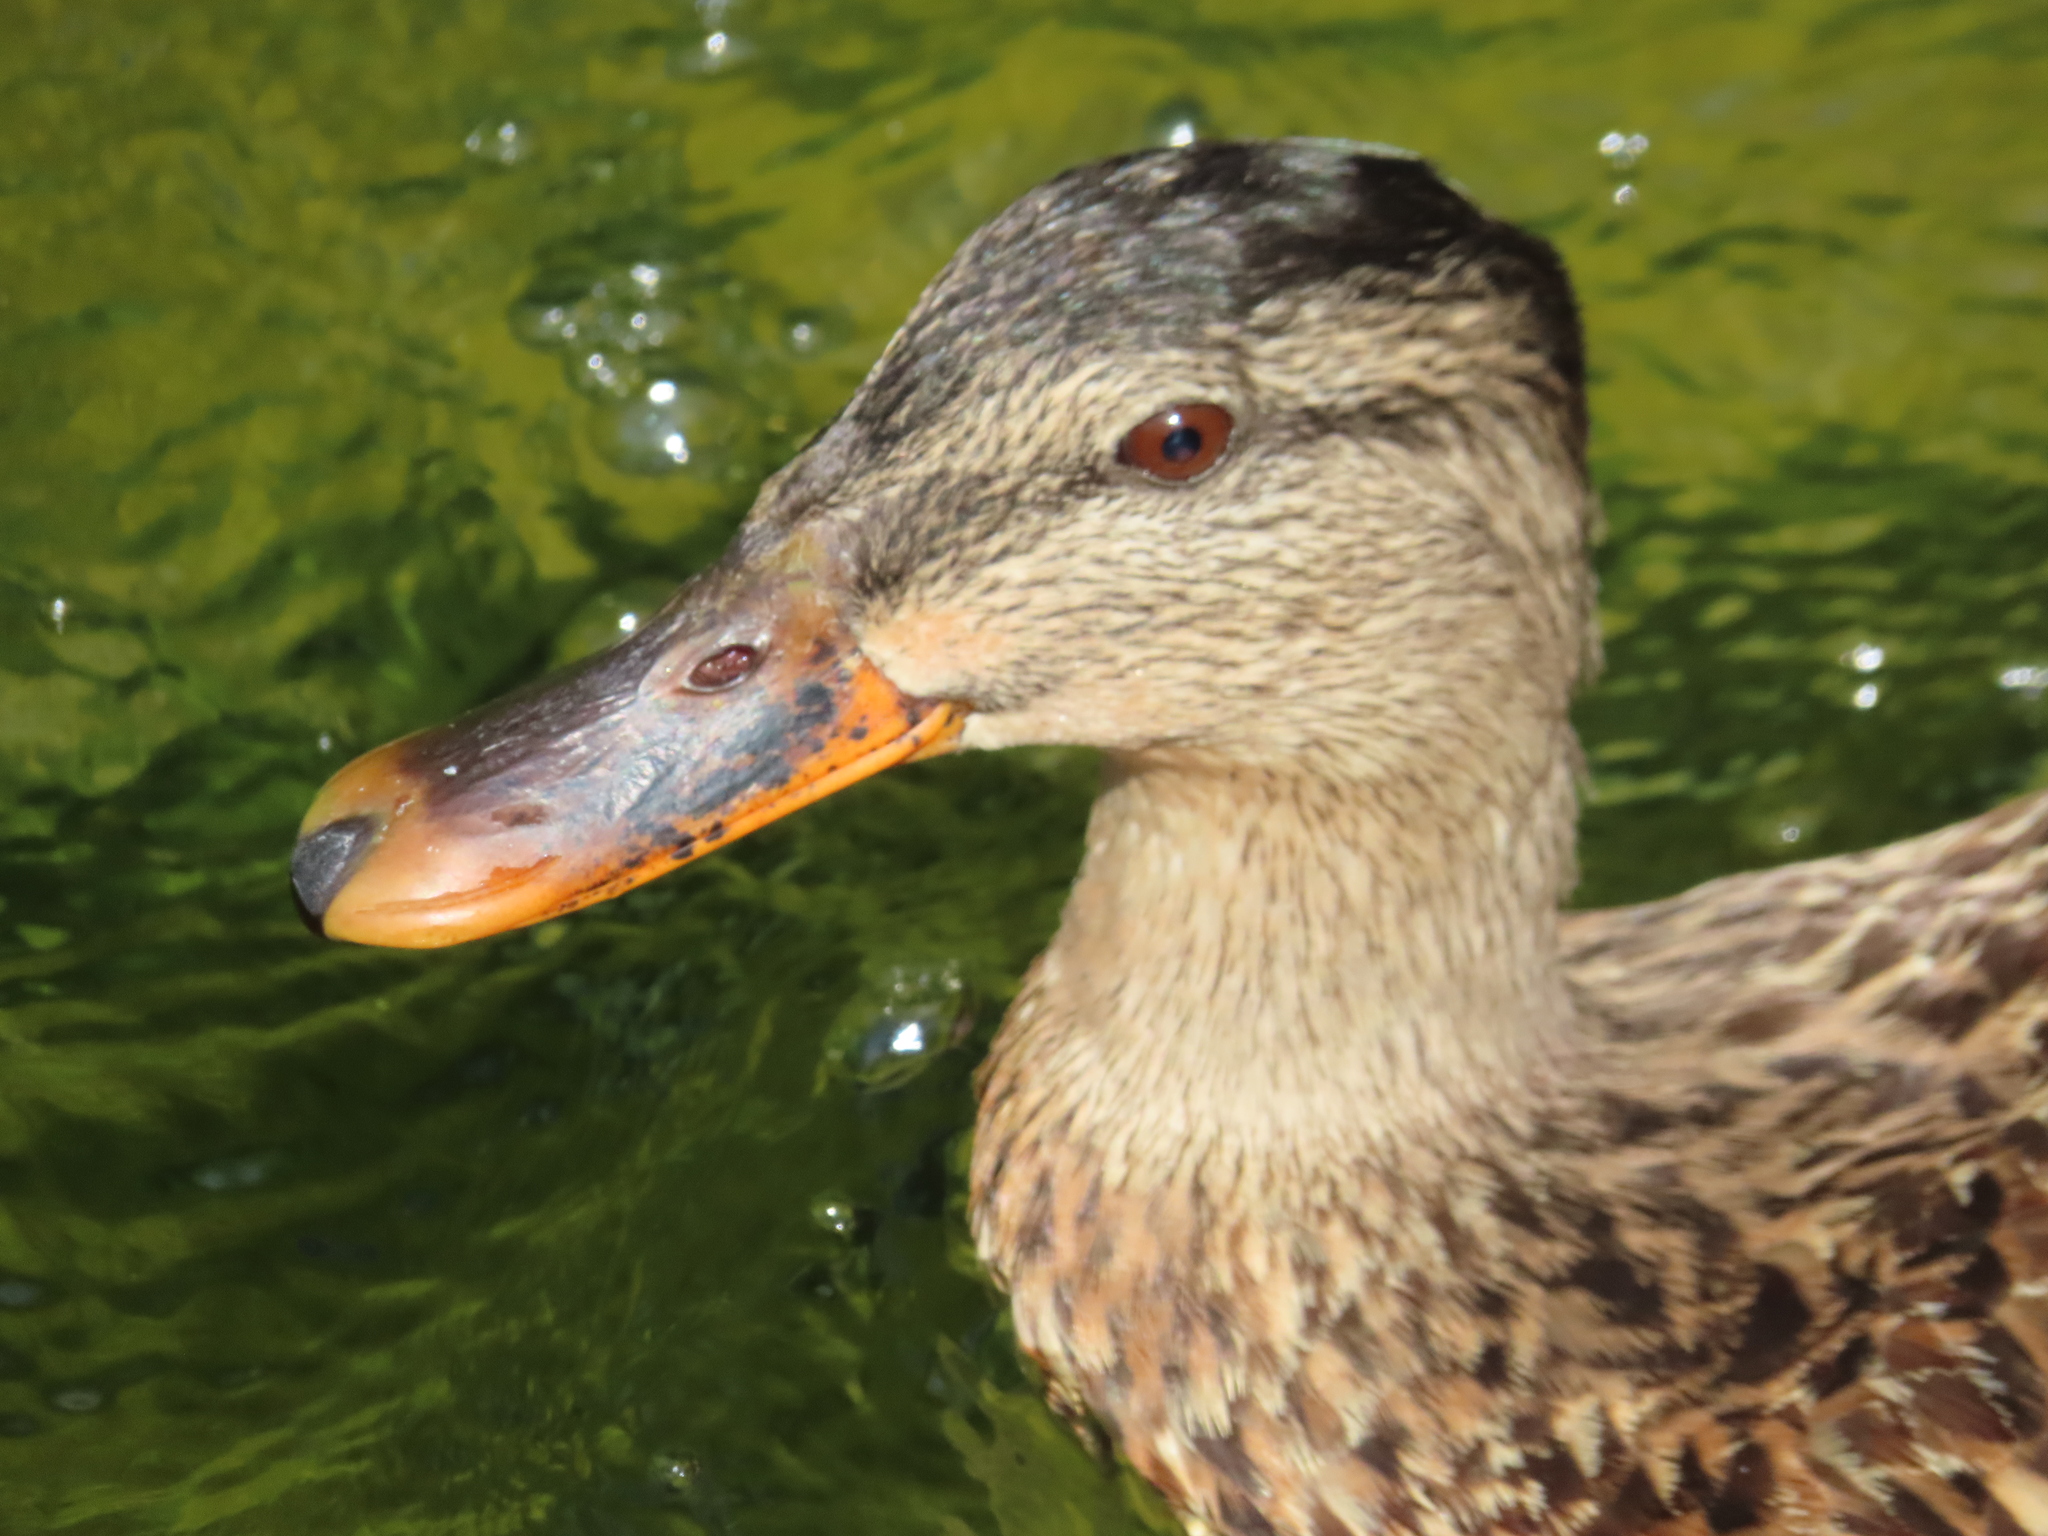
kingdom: Animalia
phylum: Chordata
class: Aves
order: Anseriformes
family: Anatidae
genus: Anas
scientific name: Anas platyrhynchos
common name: Mallard
